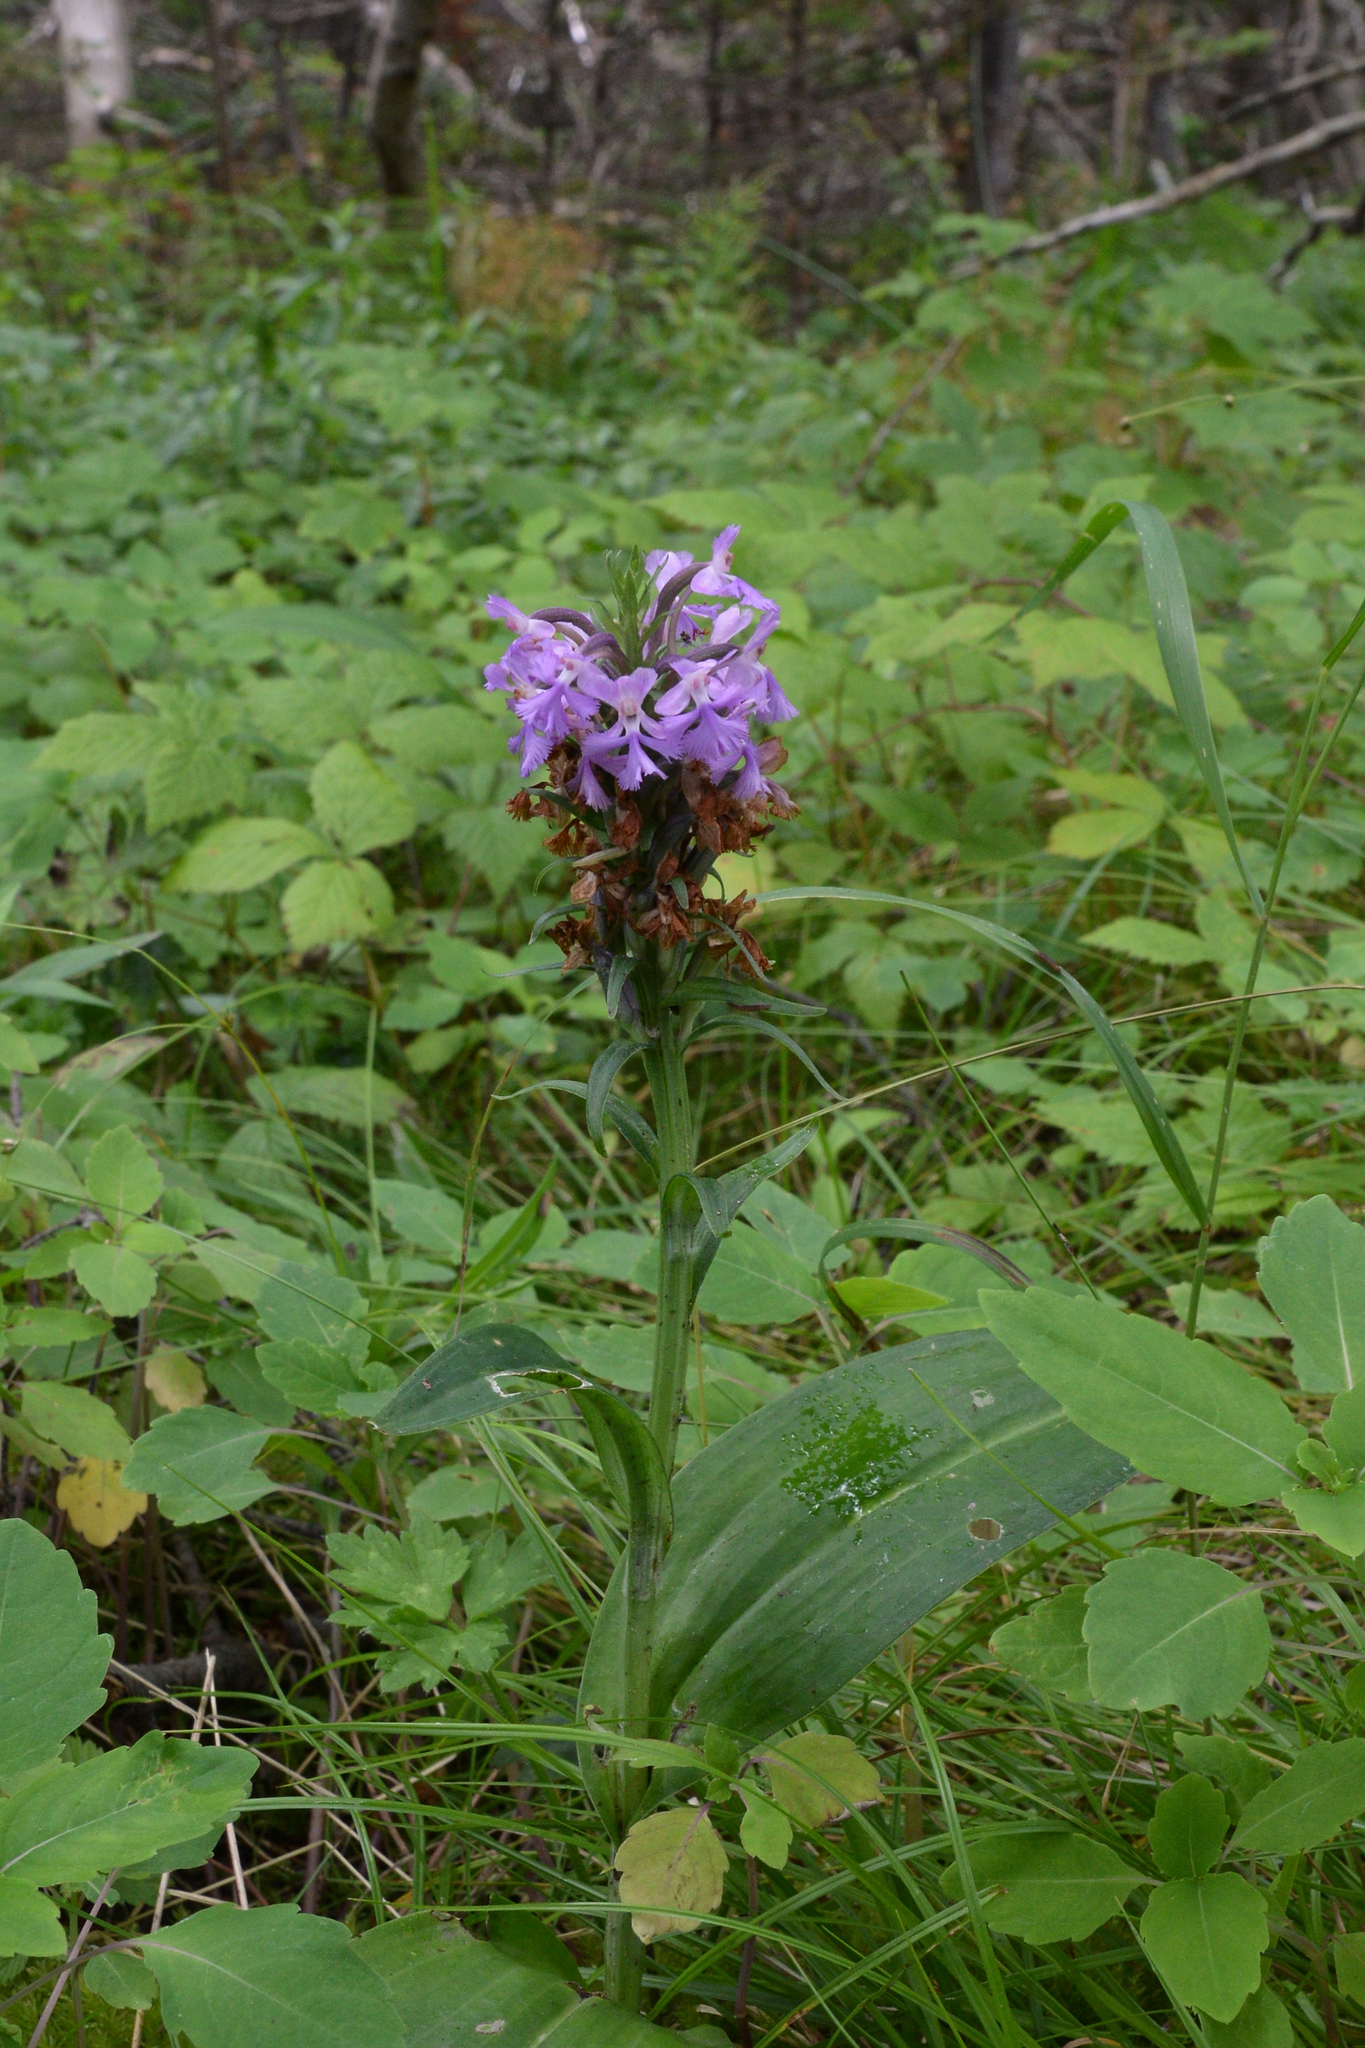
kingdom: Plantae
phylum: Tracheophyta
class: Liliopsida
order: Asparagales
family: Orchidaceae
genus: Platanthera
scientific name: Platanthera psycodes
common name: Lesser purple fringed orchid
